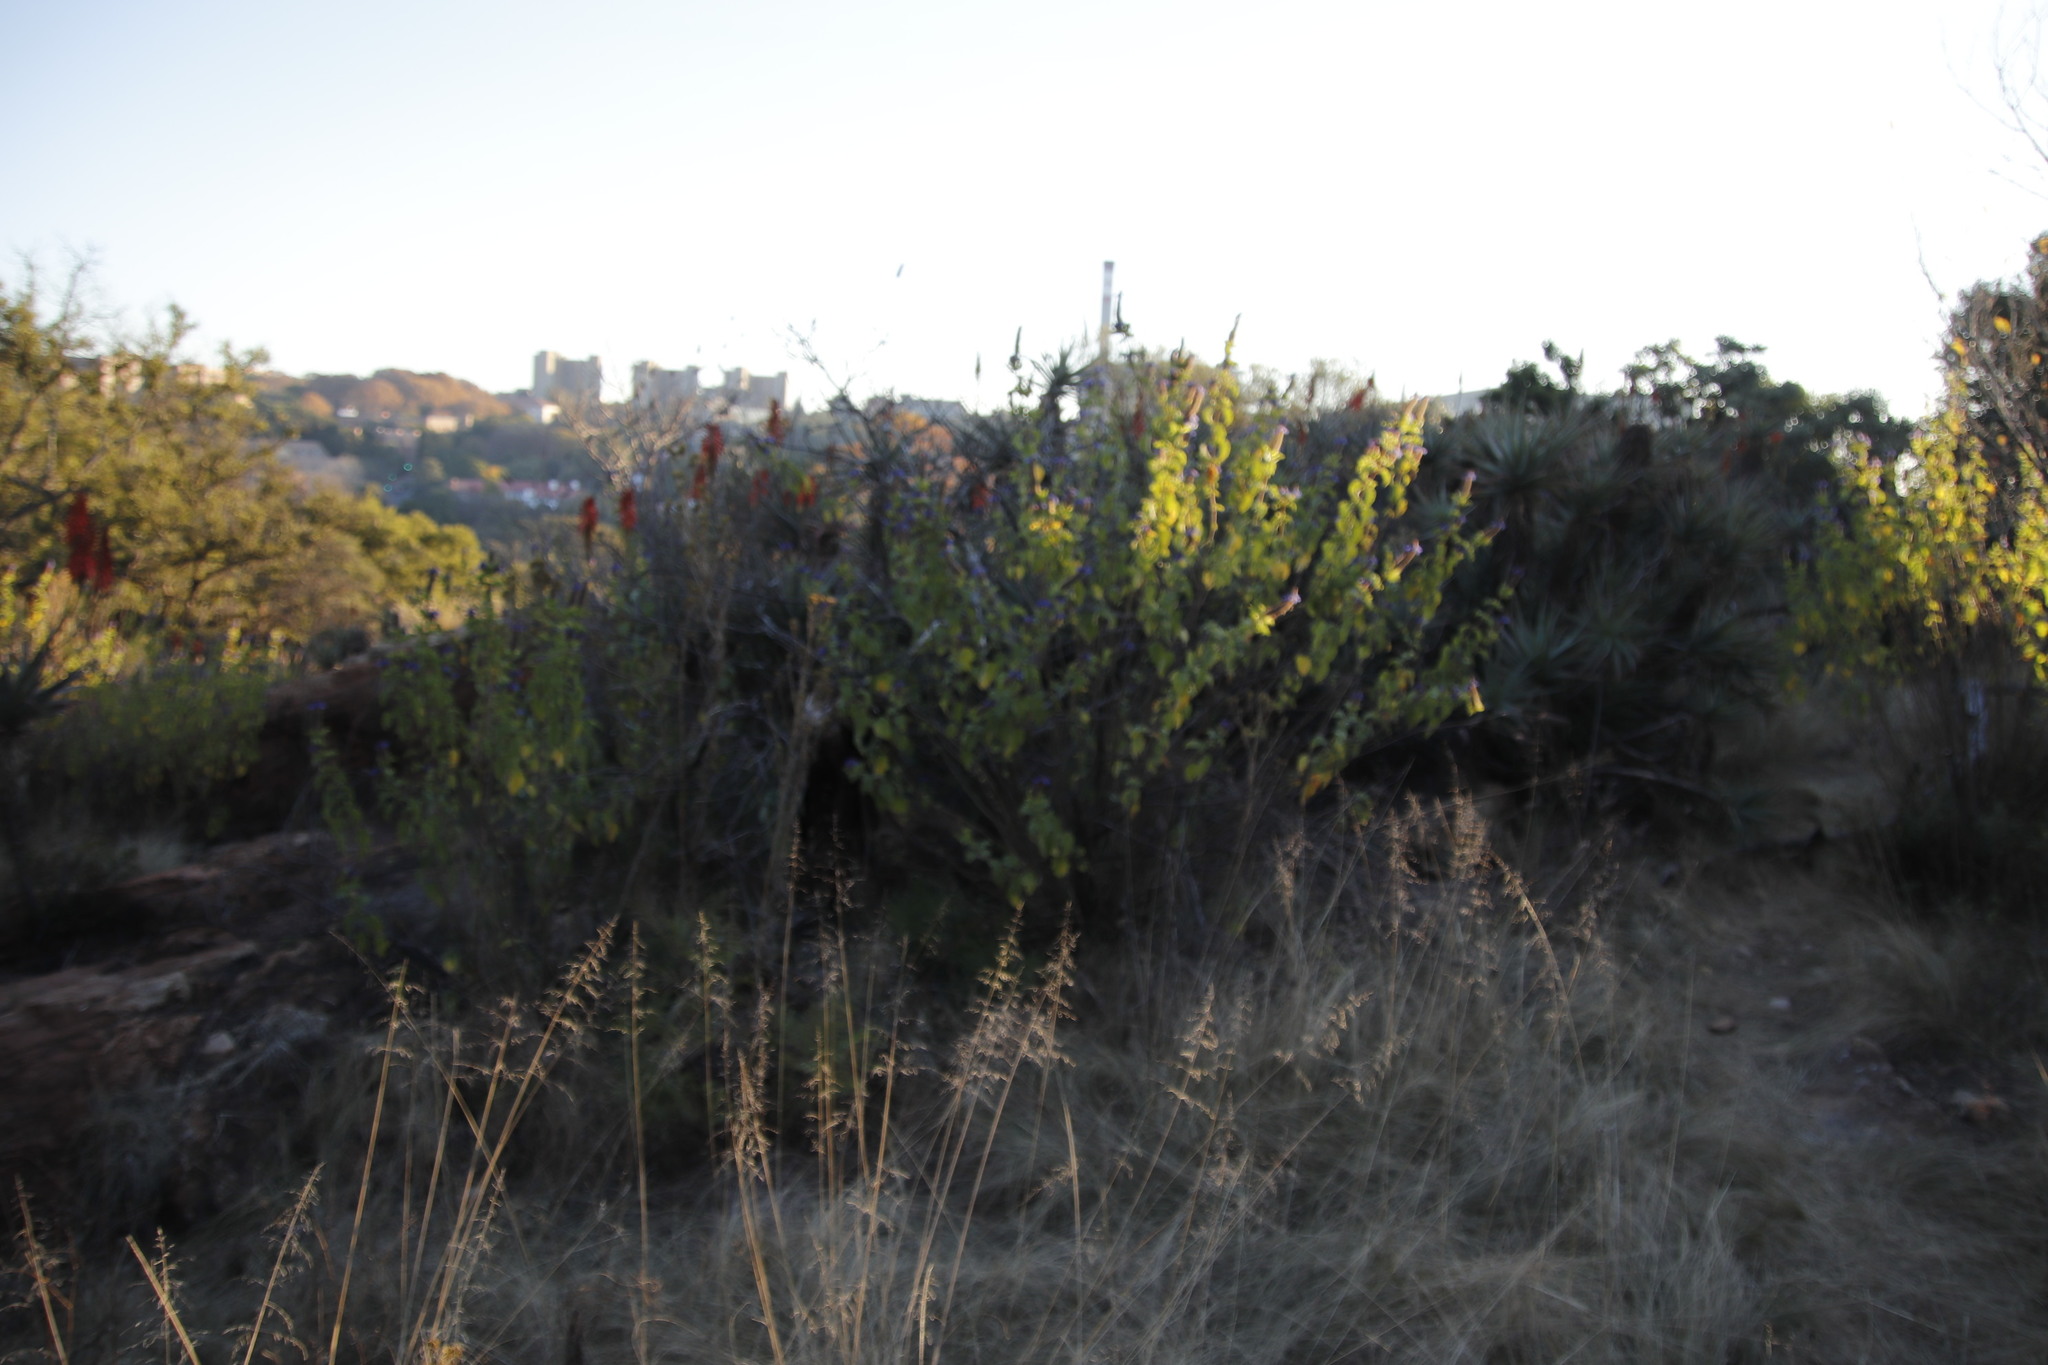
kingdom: Plantae
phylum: Tracheophyta
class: Magnoliopsida
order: Lamiales
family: Lamiaceae
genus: Coleus
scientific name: Coleus livingstonei
